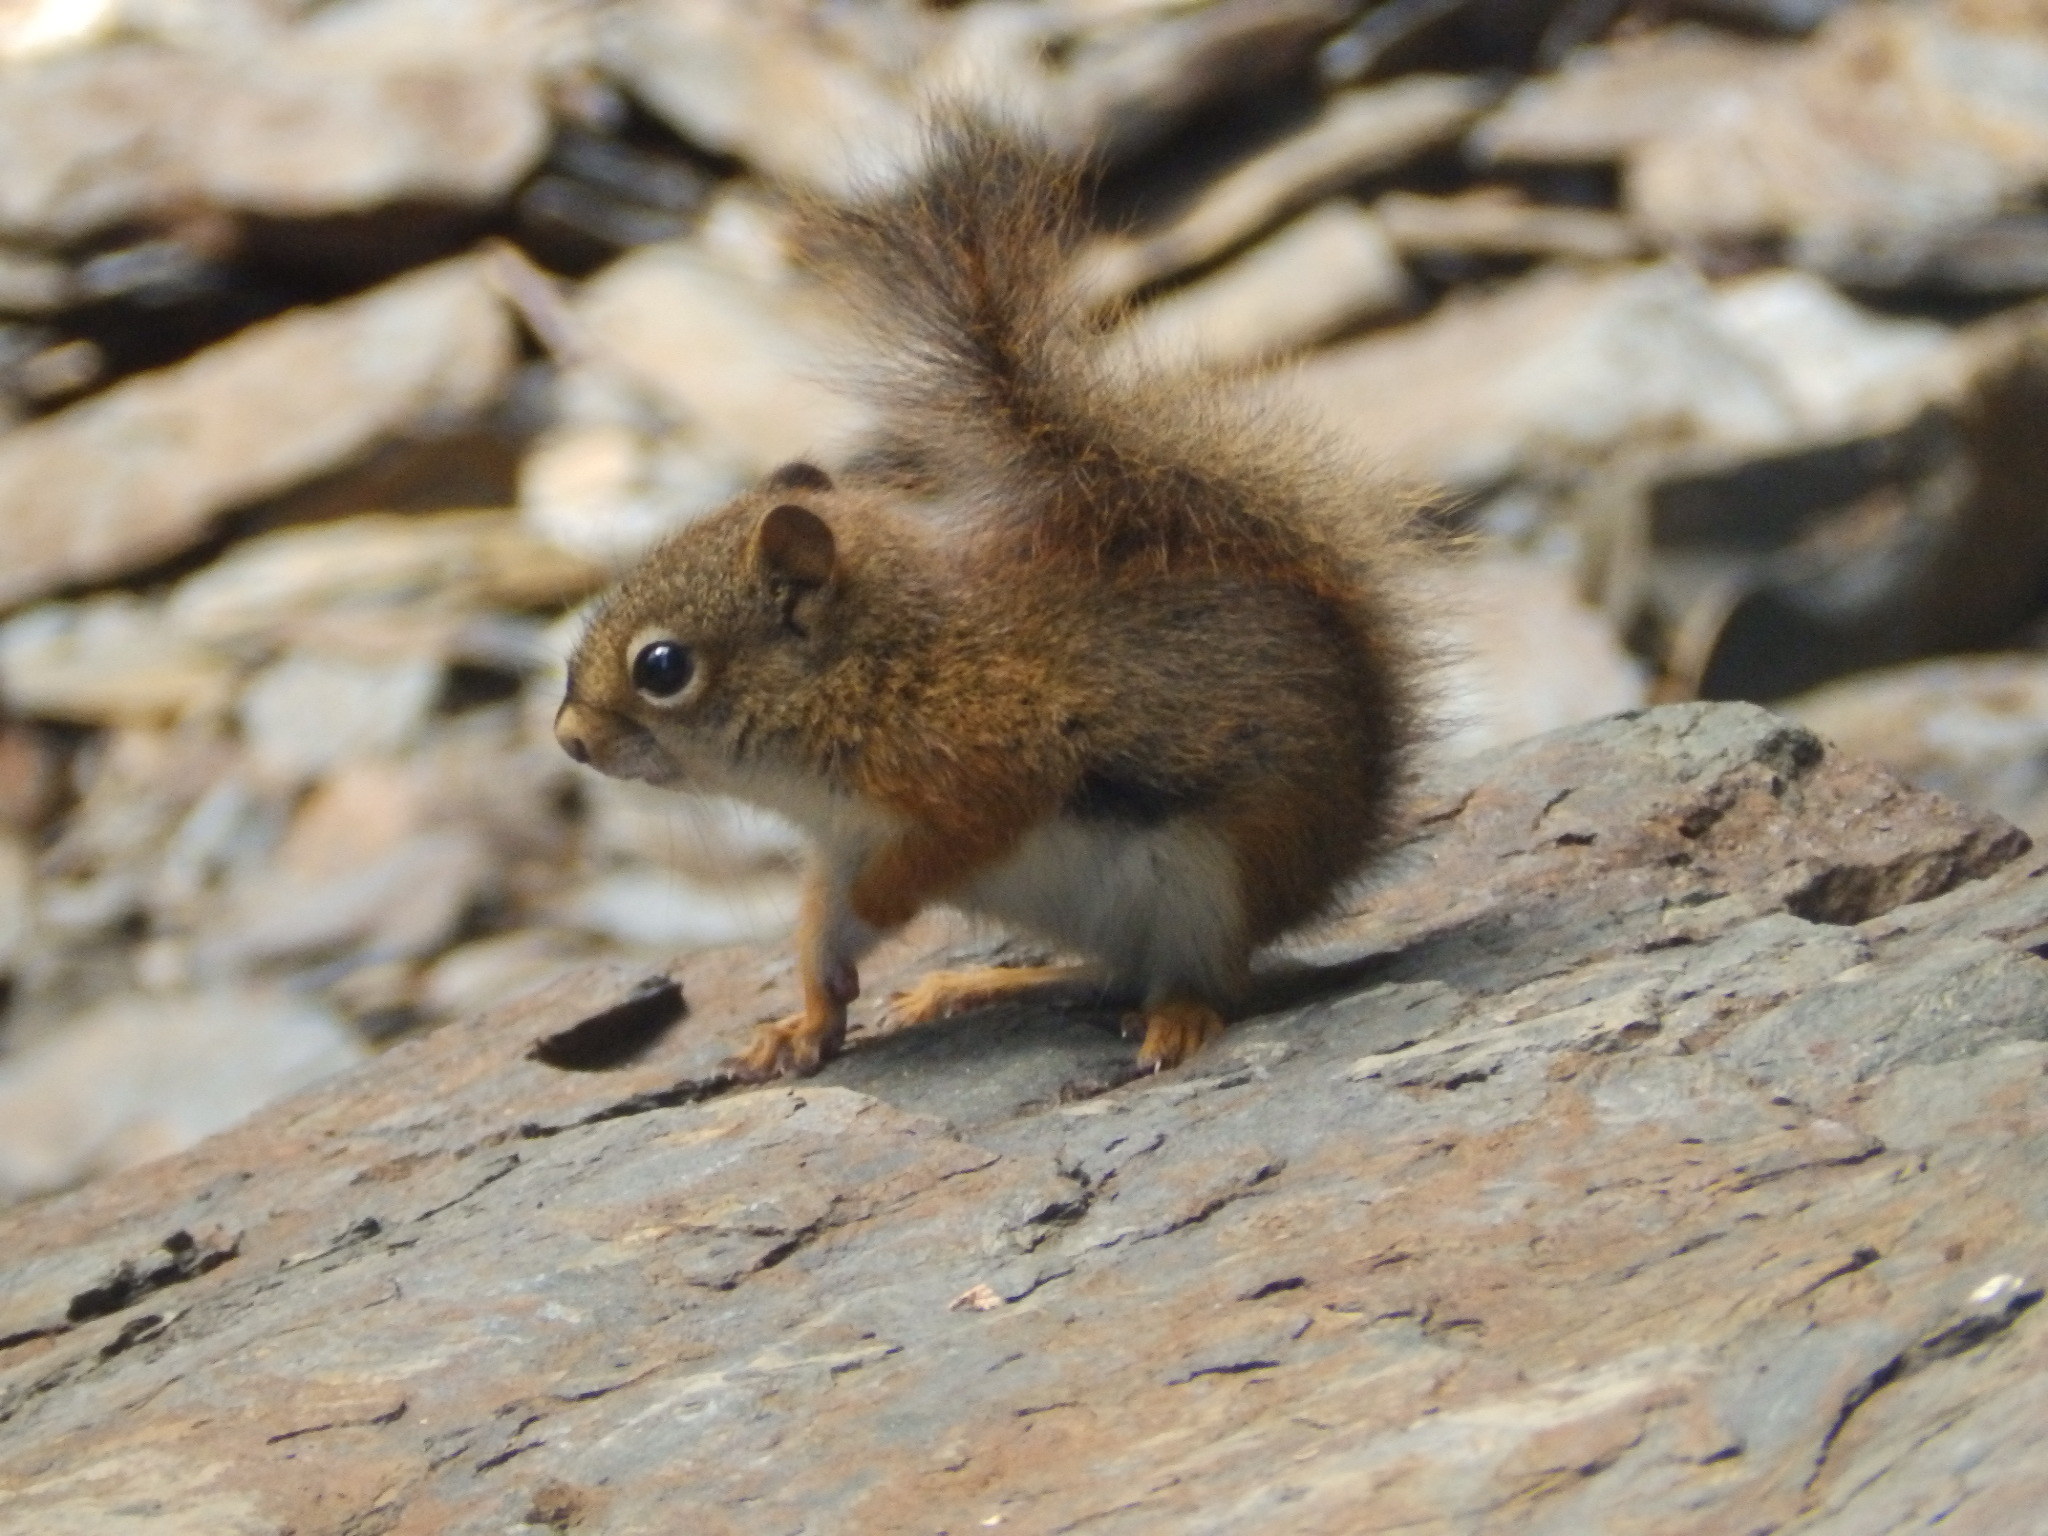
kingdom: Animalia
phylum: Chordata
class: Mammalia
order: Rodentia
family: Sciuridae
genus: Tamiasciurus
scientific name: Tamiasciurus hudsonicus
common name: Red squirrel
